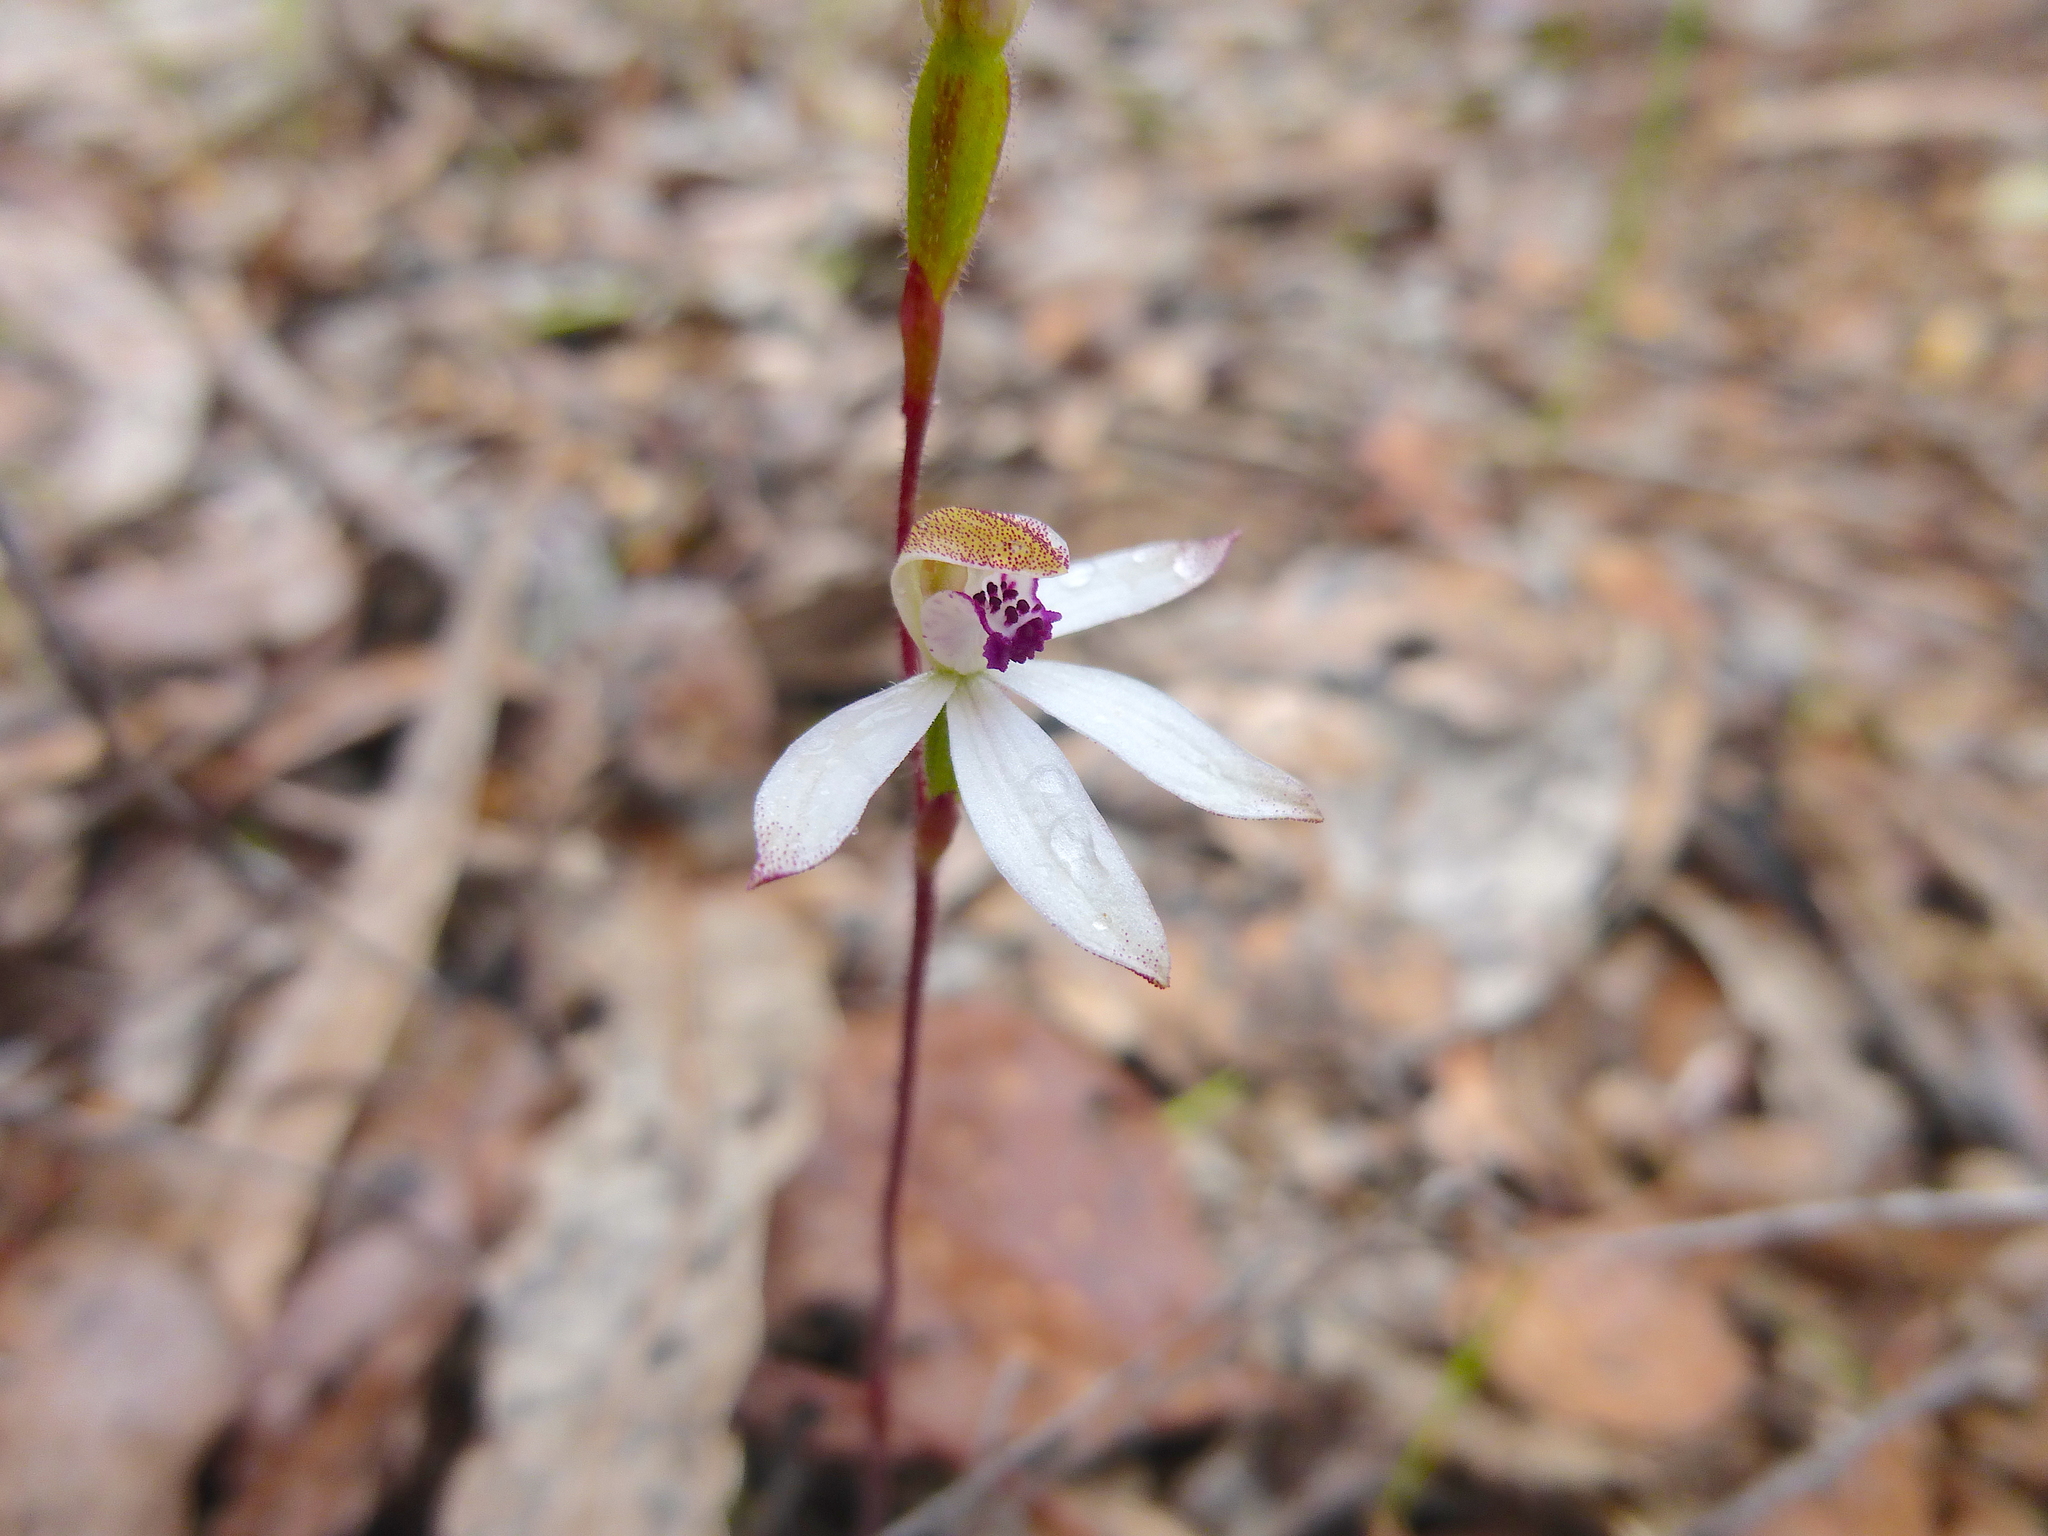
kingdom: Plantae
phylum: Tracheophyta
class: Liliopsida
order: Asparagales
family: Orchidaceae
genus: Caladenia
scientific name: Caladenia cucullata
